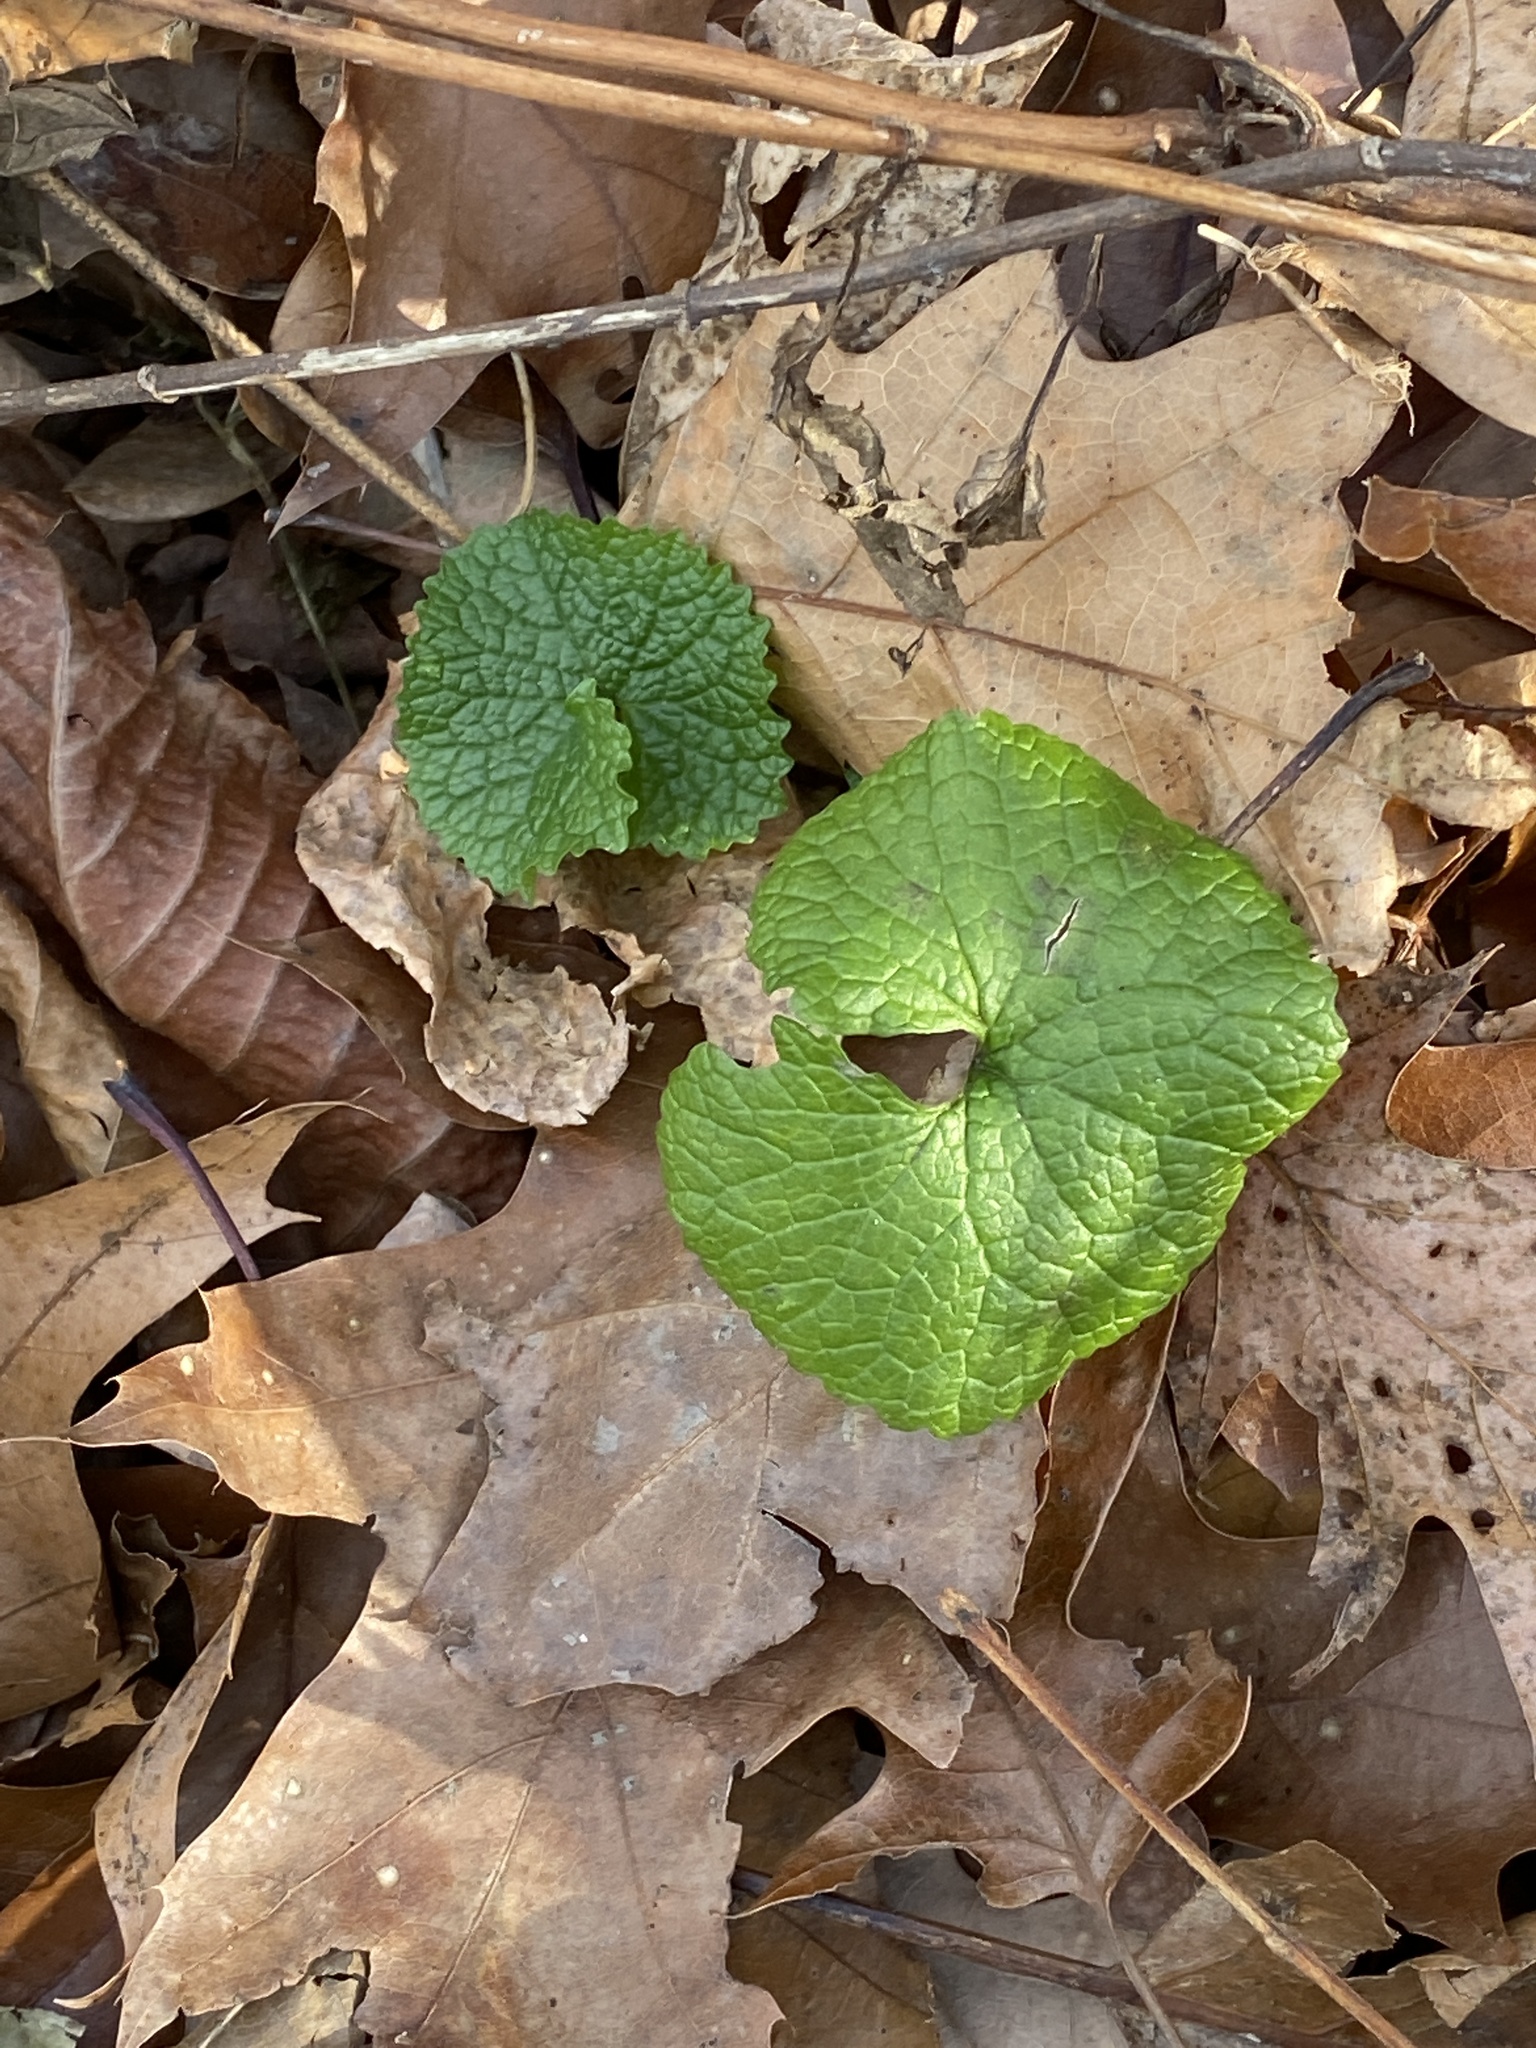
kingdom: Plantae
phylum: Tracheophyta
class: Magnoliopsida
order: Brassicales
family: Brassicaceae
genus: Alliaria
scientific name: Alliaria petiolata
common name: Garlic mustard
